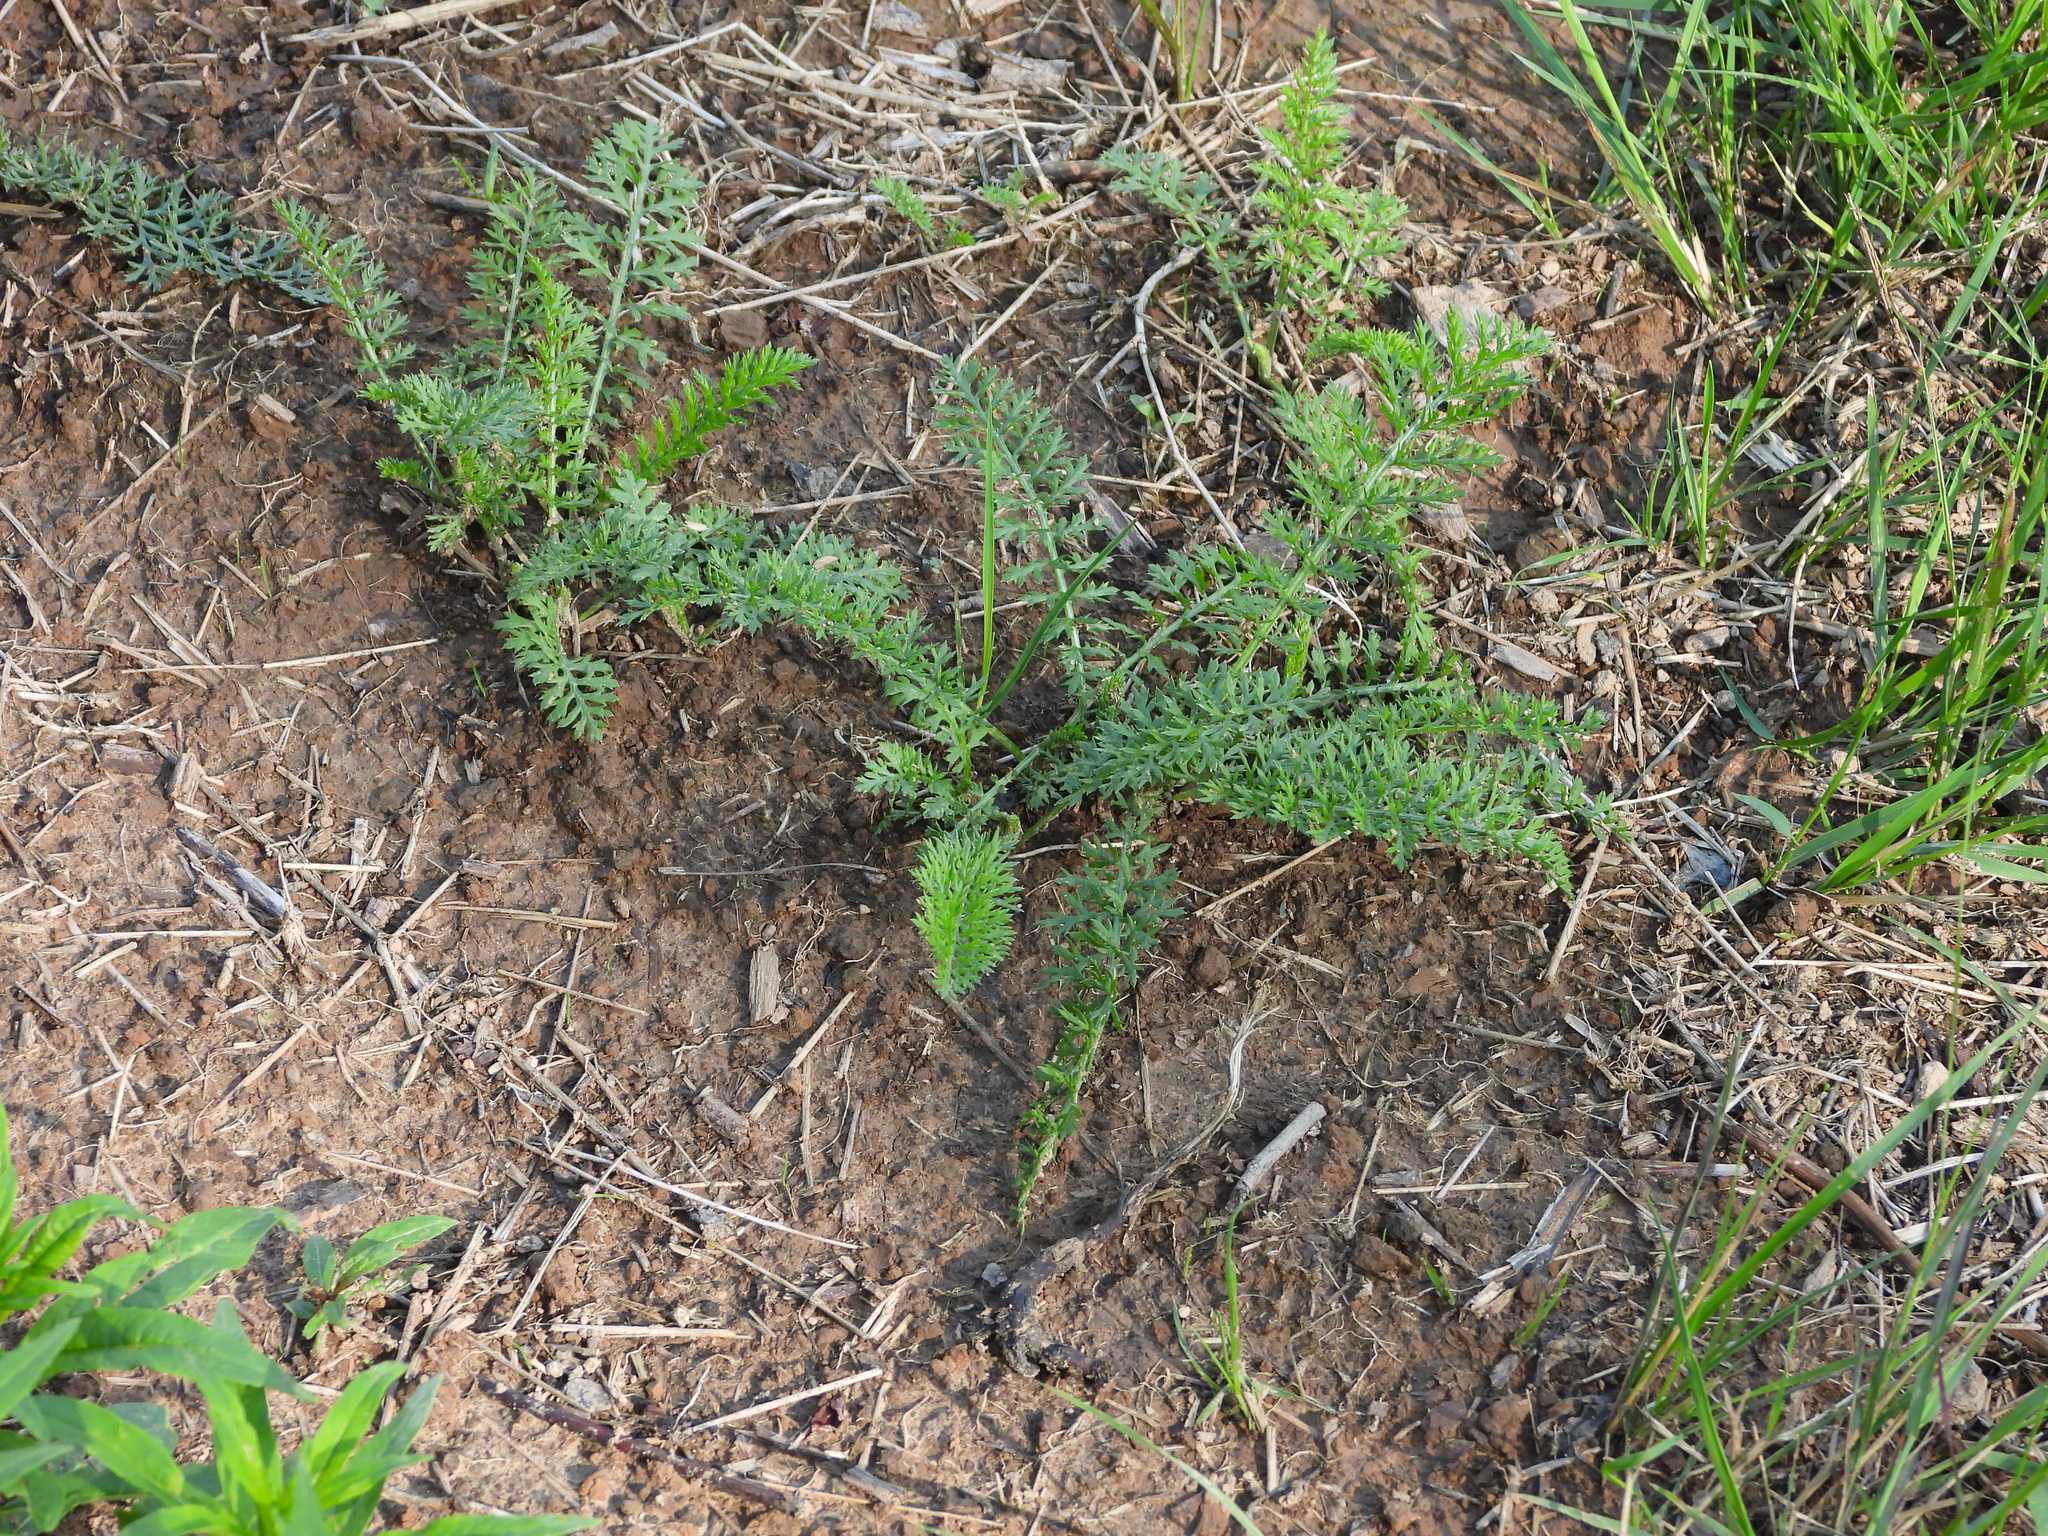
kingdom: Plantae
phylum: Tracheophyta
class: Magnoliopsida
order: Asterales
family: Asteraceae
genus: Achillea
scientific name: Achillea millefolium
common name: Yarrow
